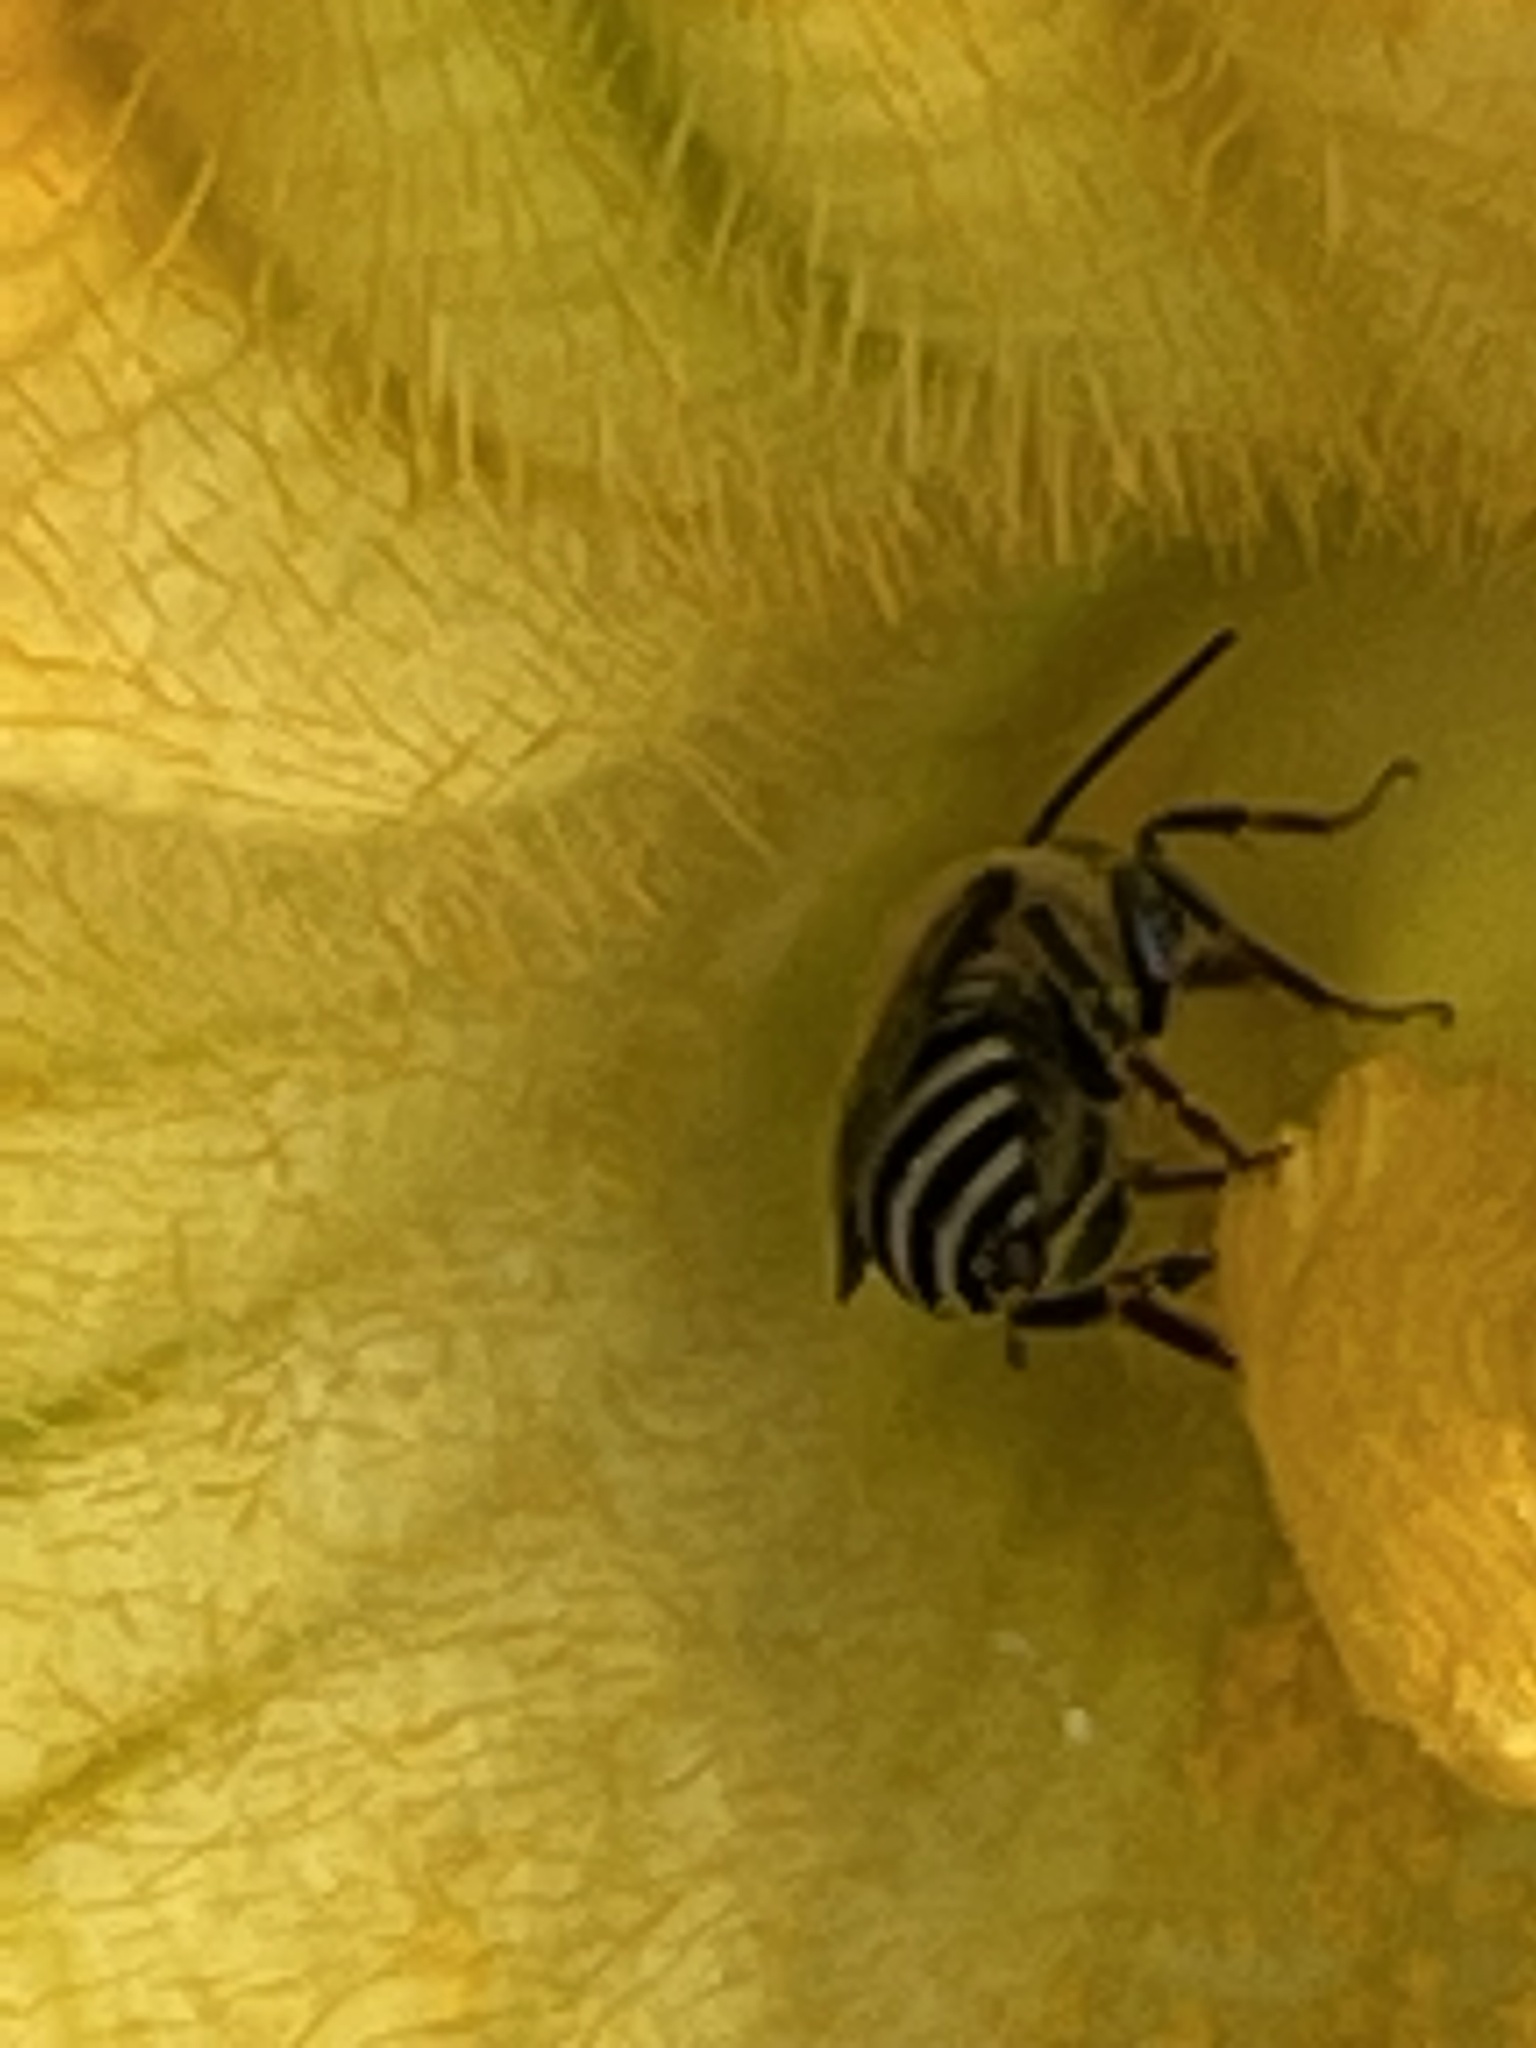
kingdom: Animalia
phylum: Arthropoda
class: Insecta
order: Hymenoptera
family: Apidae
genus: Peponapis
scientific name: Peponapis pruinosa
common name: Pruinose squash bee
